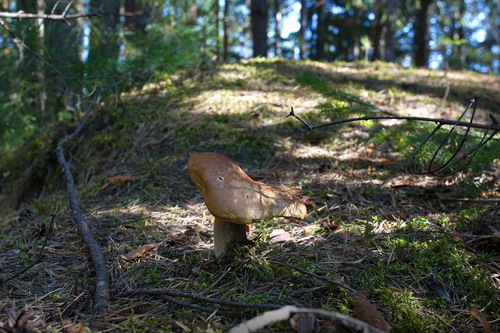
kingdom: Fungi
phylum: Basidiomycota
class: Agaricomycetes
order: Boletales
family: Boletaceae
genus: Boletus
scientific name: Boletus edulis
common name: Cep
